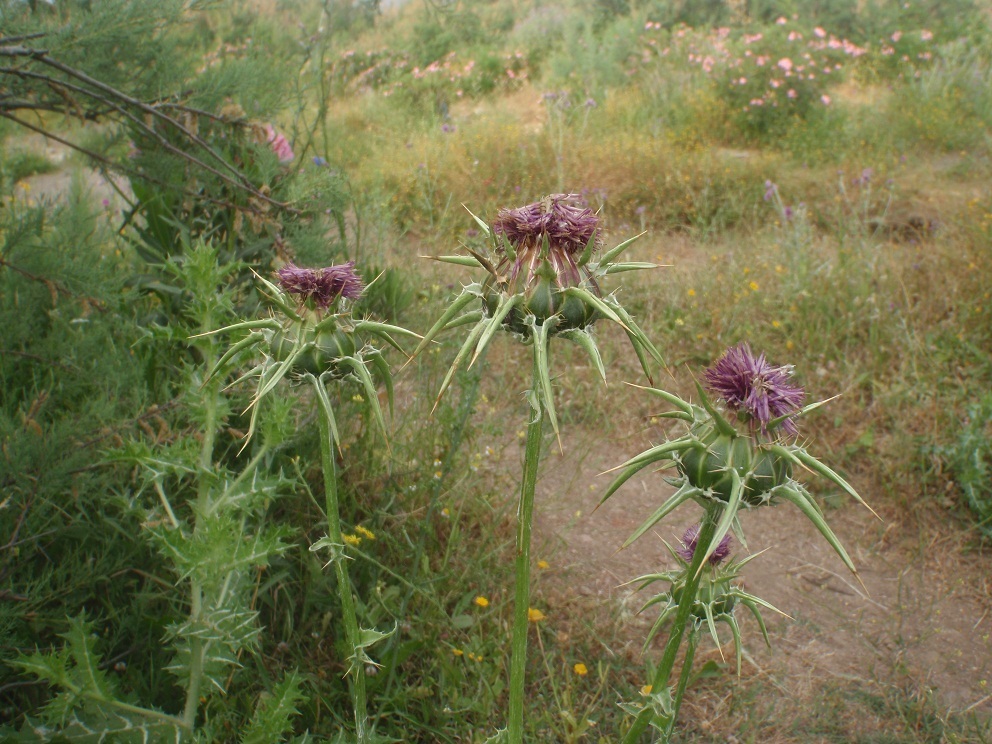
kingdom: Plantae
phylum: Tracheophyta
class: Magnoliopsida
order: Asterales
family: Asteraceae
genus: Silybum
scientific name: Silybum marianum
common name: Milk thistle
